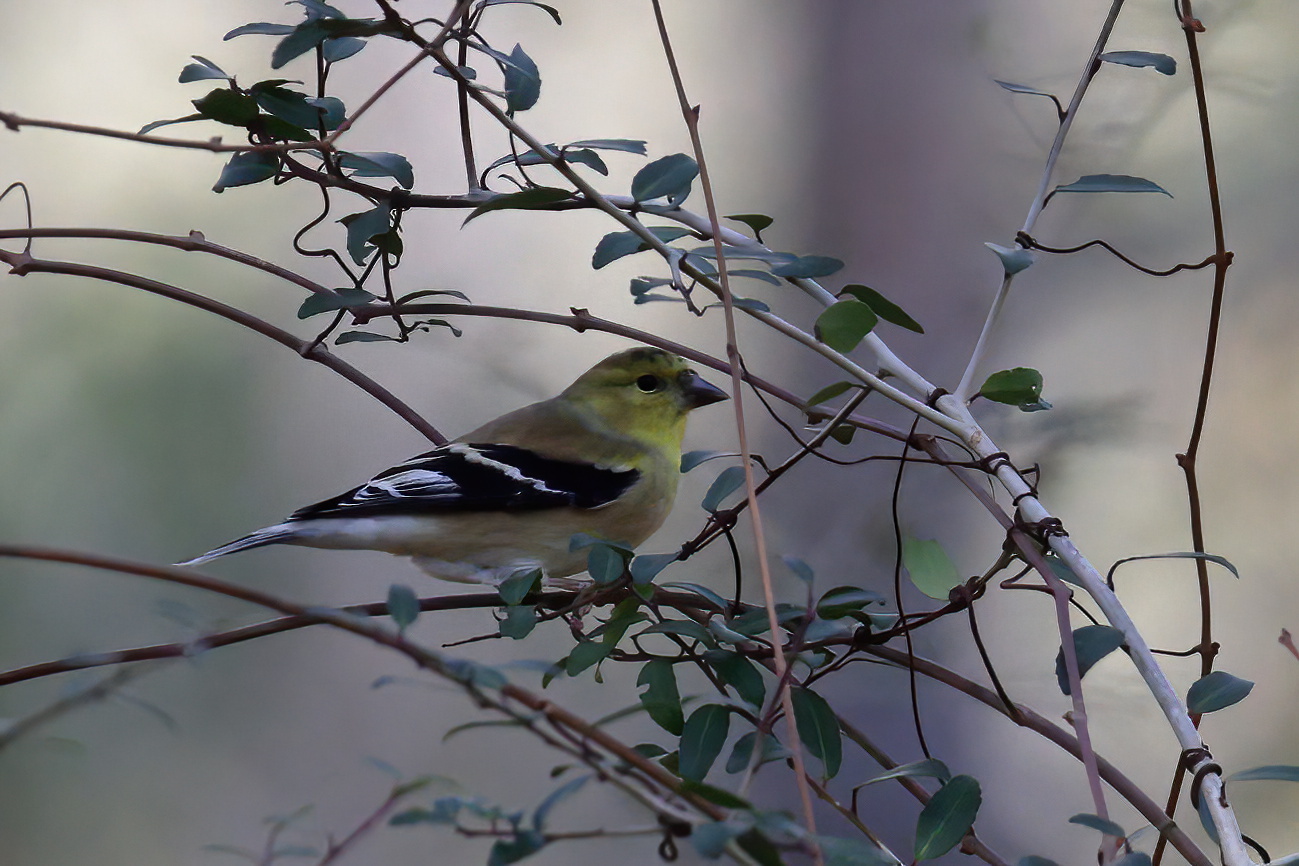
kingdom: Animalia
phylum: Chordata
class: Aves
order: Passeriformes
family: Fringillidae
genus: Spinus
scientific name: Spinus tristis
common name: American goldfinch
